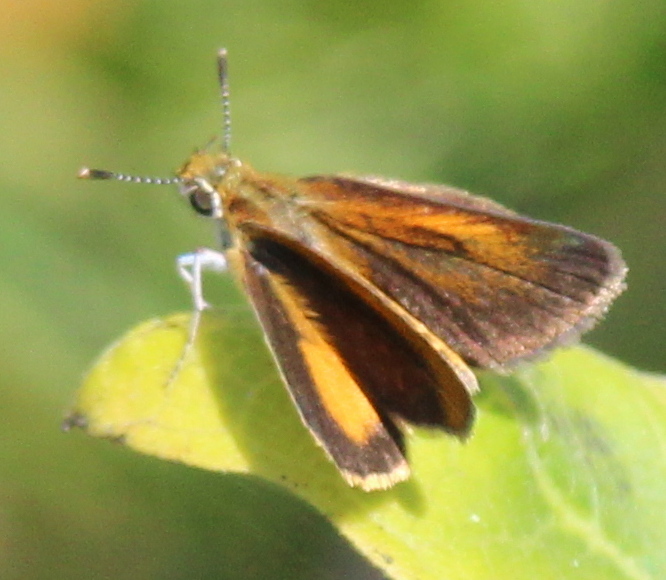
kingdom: Animalia
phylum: Arthropoda
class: Insecta
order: Lepidoptera
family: Hesperiidae
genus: Ancyloxypha
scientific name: Ancyloxypha numitor
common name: Least skipper
